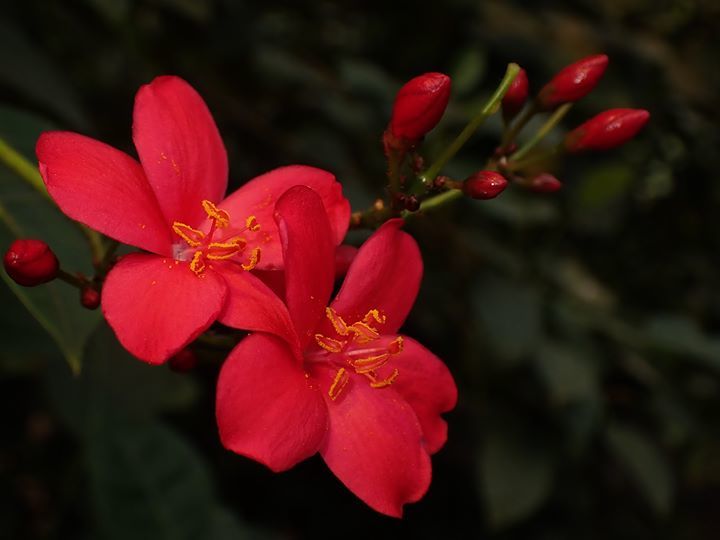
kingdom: Plantae
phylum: Tracheophyta
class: Magnoliopsida
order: Malpighiales
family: Euphorbiaceae
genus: Jatropha
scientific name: Jatropha integerrima
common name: Peregrina
